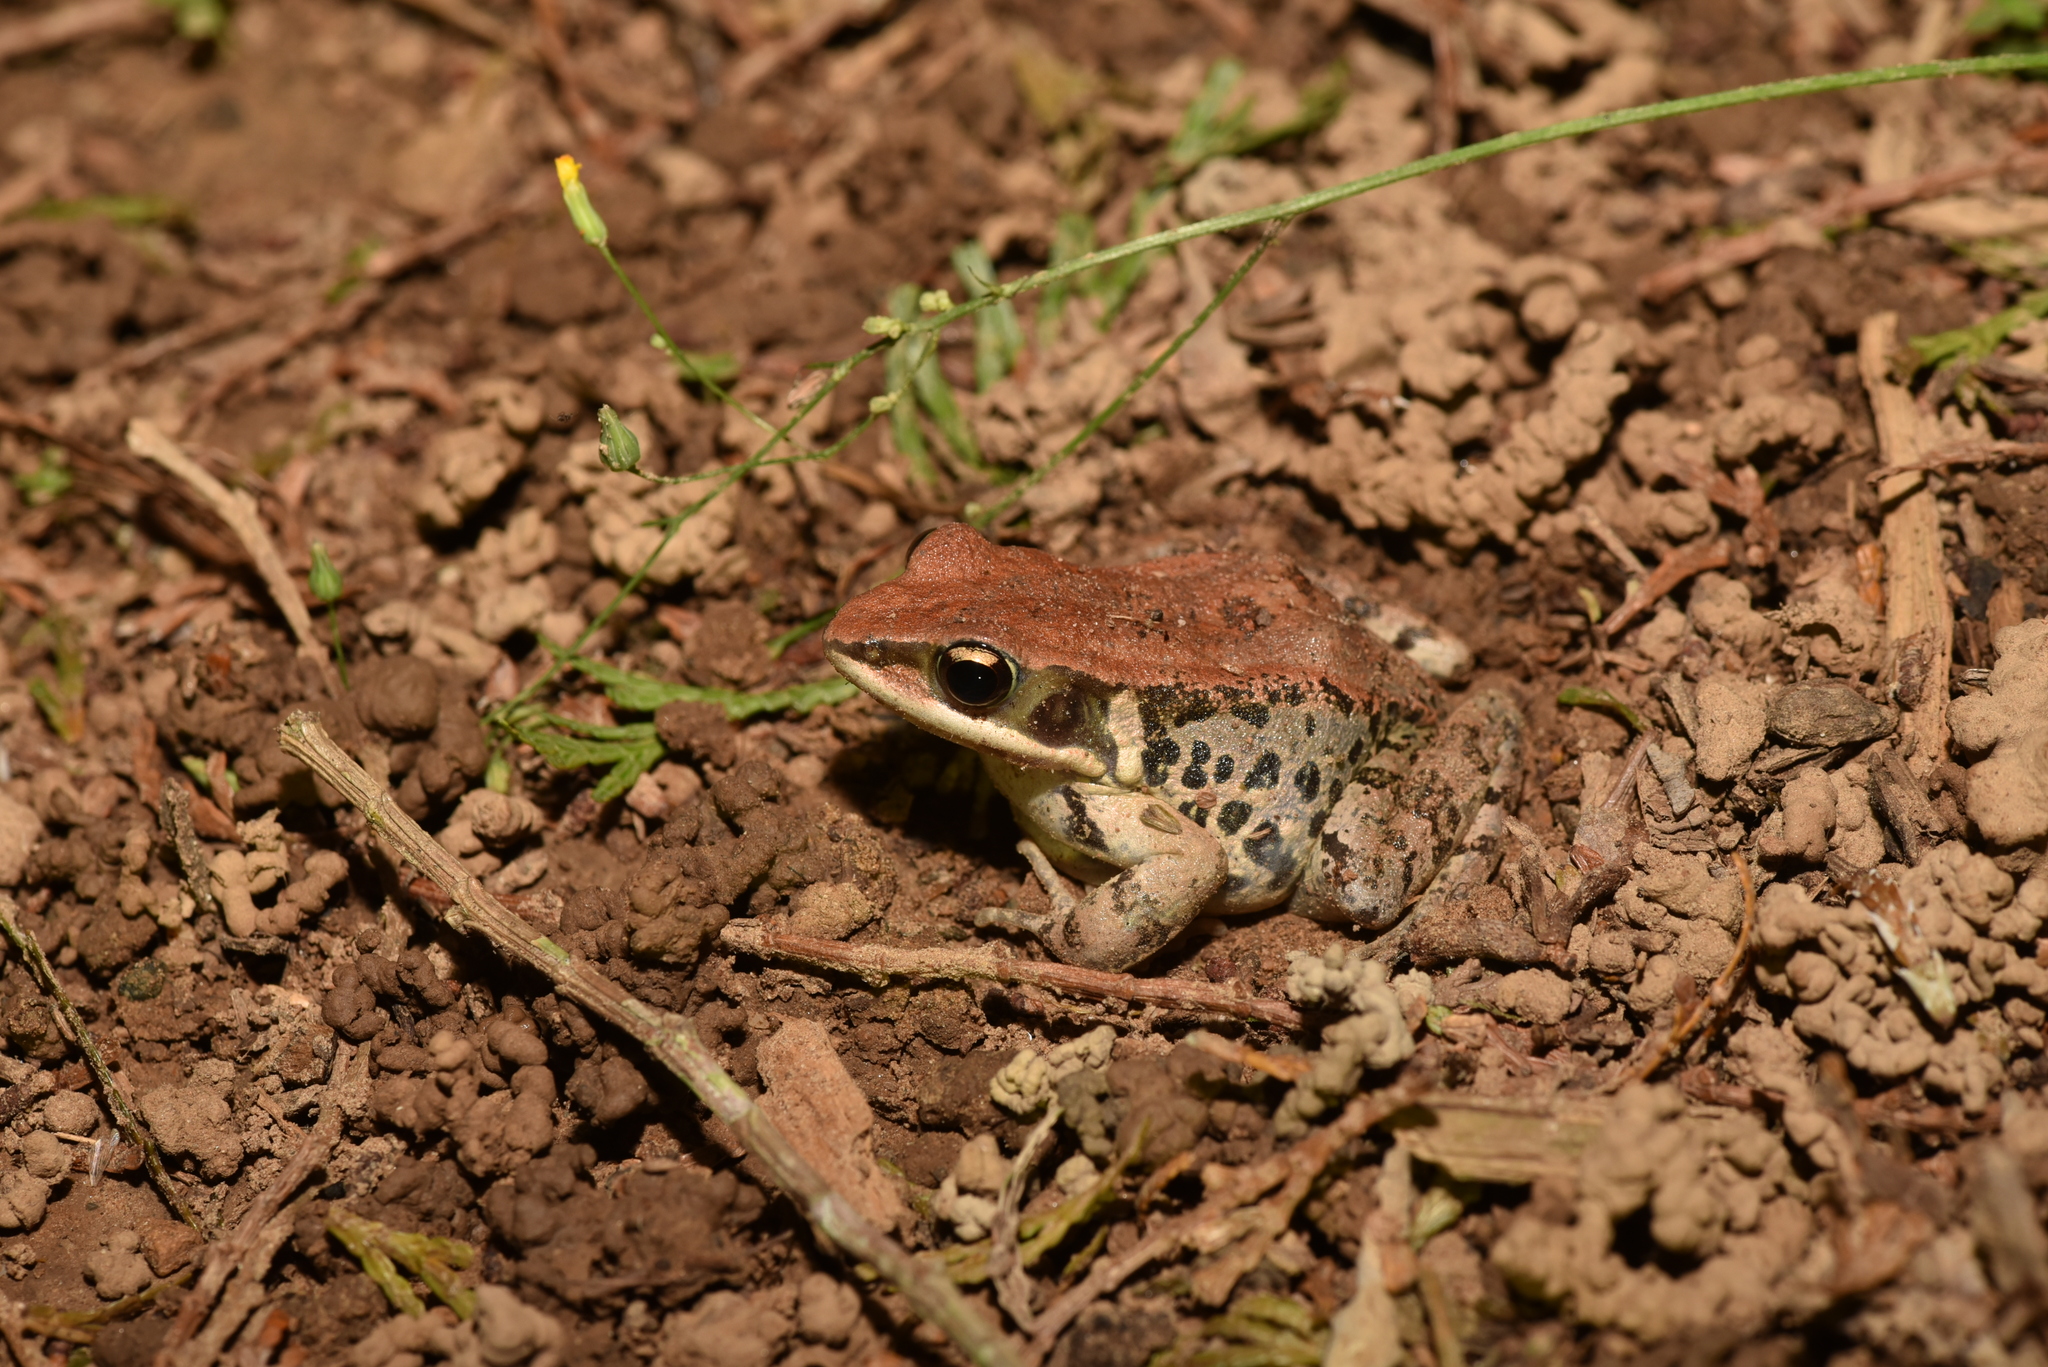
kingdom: Animalia
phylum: Chordata
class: Amphibia
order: Anura
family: Ranidae
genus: Hylarana
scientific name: Hylarana latouchii
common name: Broad-folded frog
